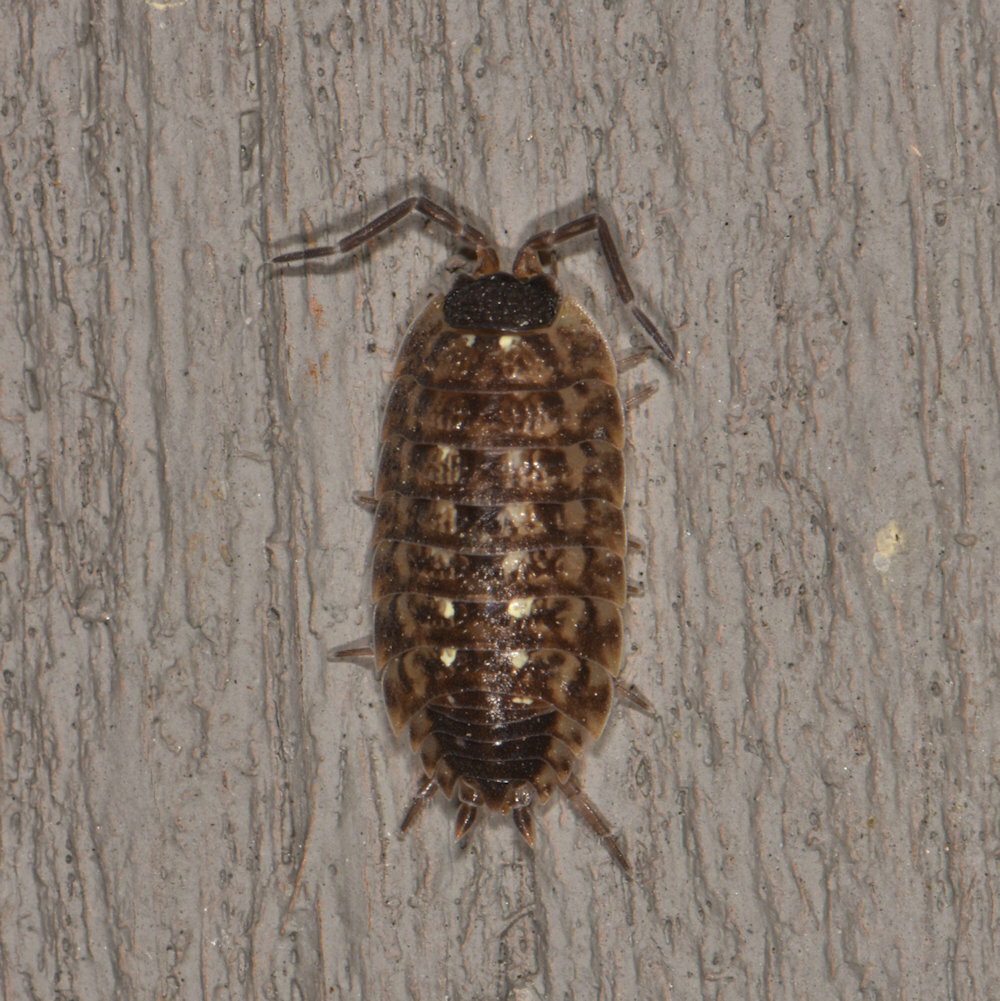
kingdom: Animalia
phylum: Arthropoda
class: Malacostraca
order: Isopoda
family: Porcellionidae
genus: Porcellio
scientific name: Porcellio spinicornis
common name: Painted woodlouse
